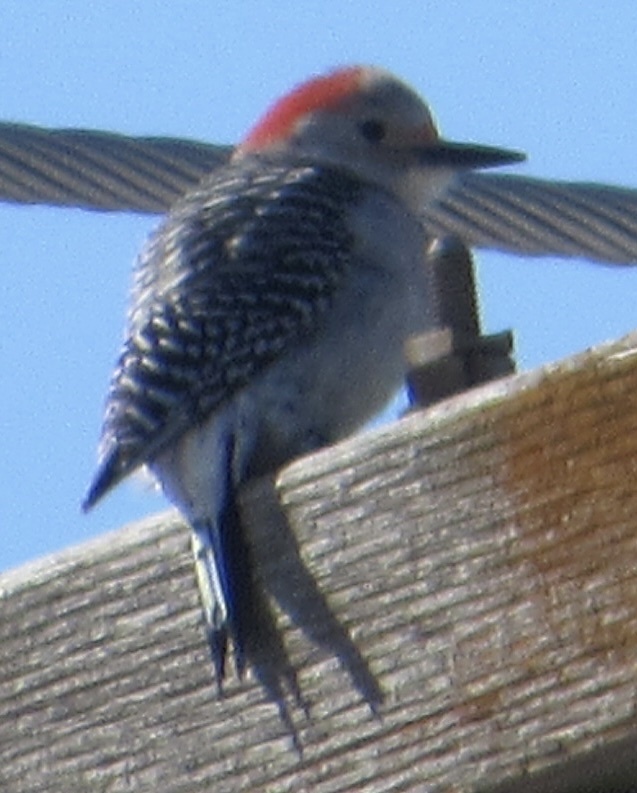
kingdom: Animalia
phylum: Chordata
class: Aves
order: Piciformes
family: Picidae
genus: Melanerpes
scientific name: Melanerpes carolinus
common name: Red-bellied woodpecker
